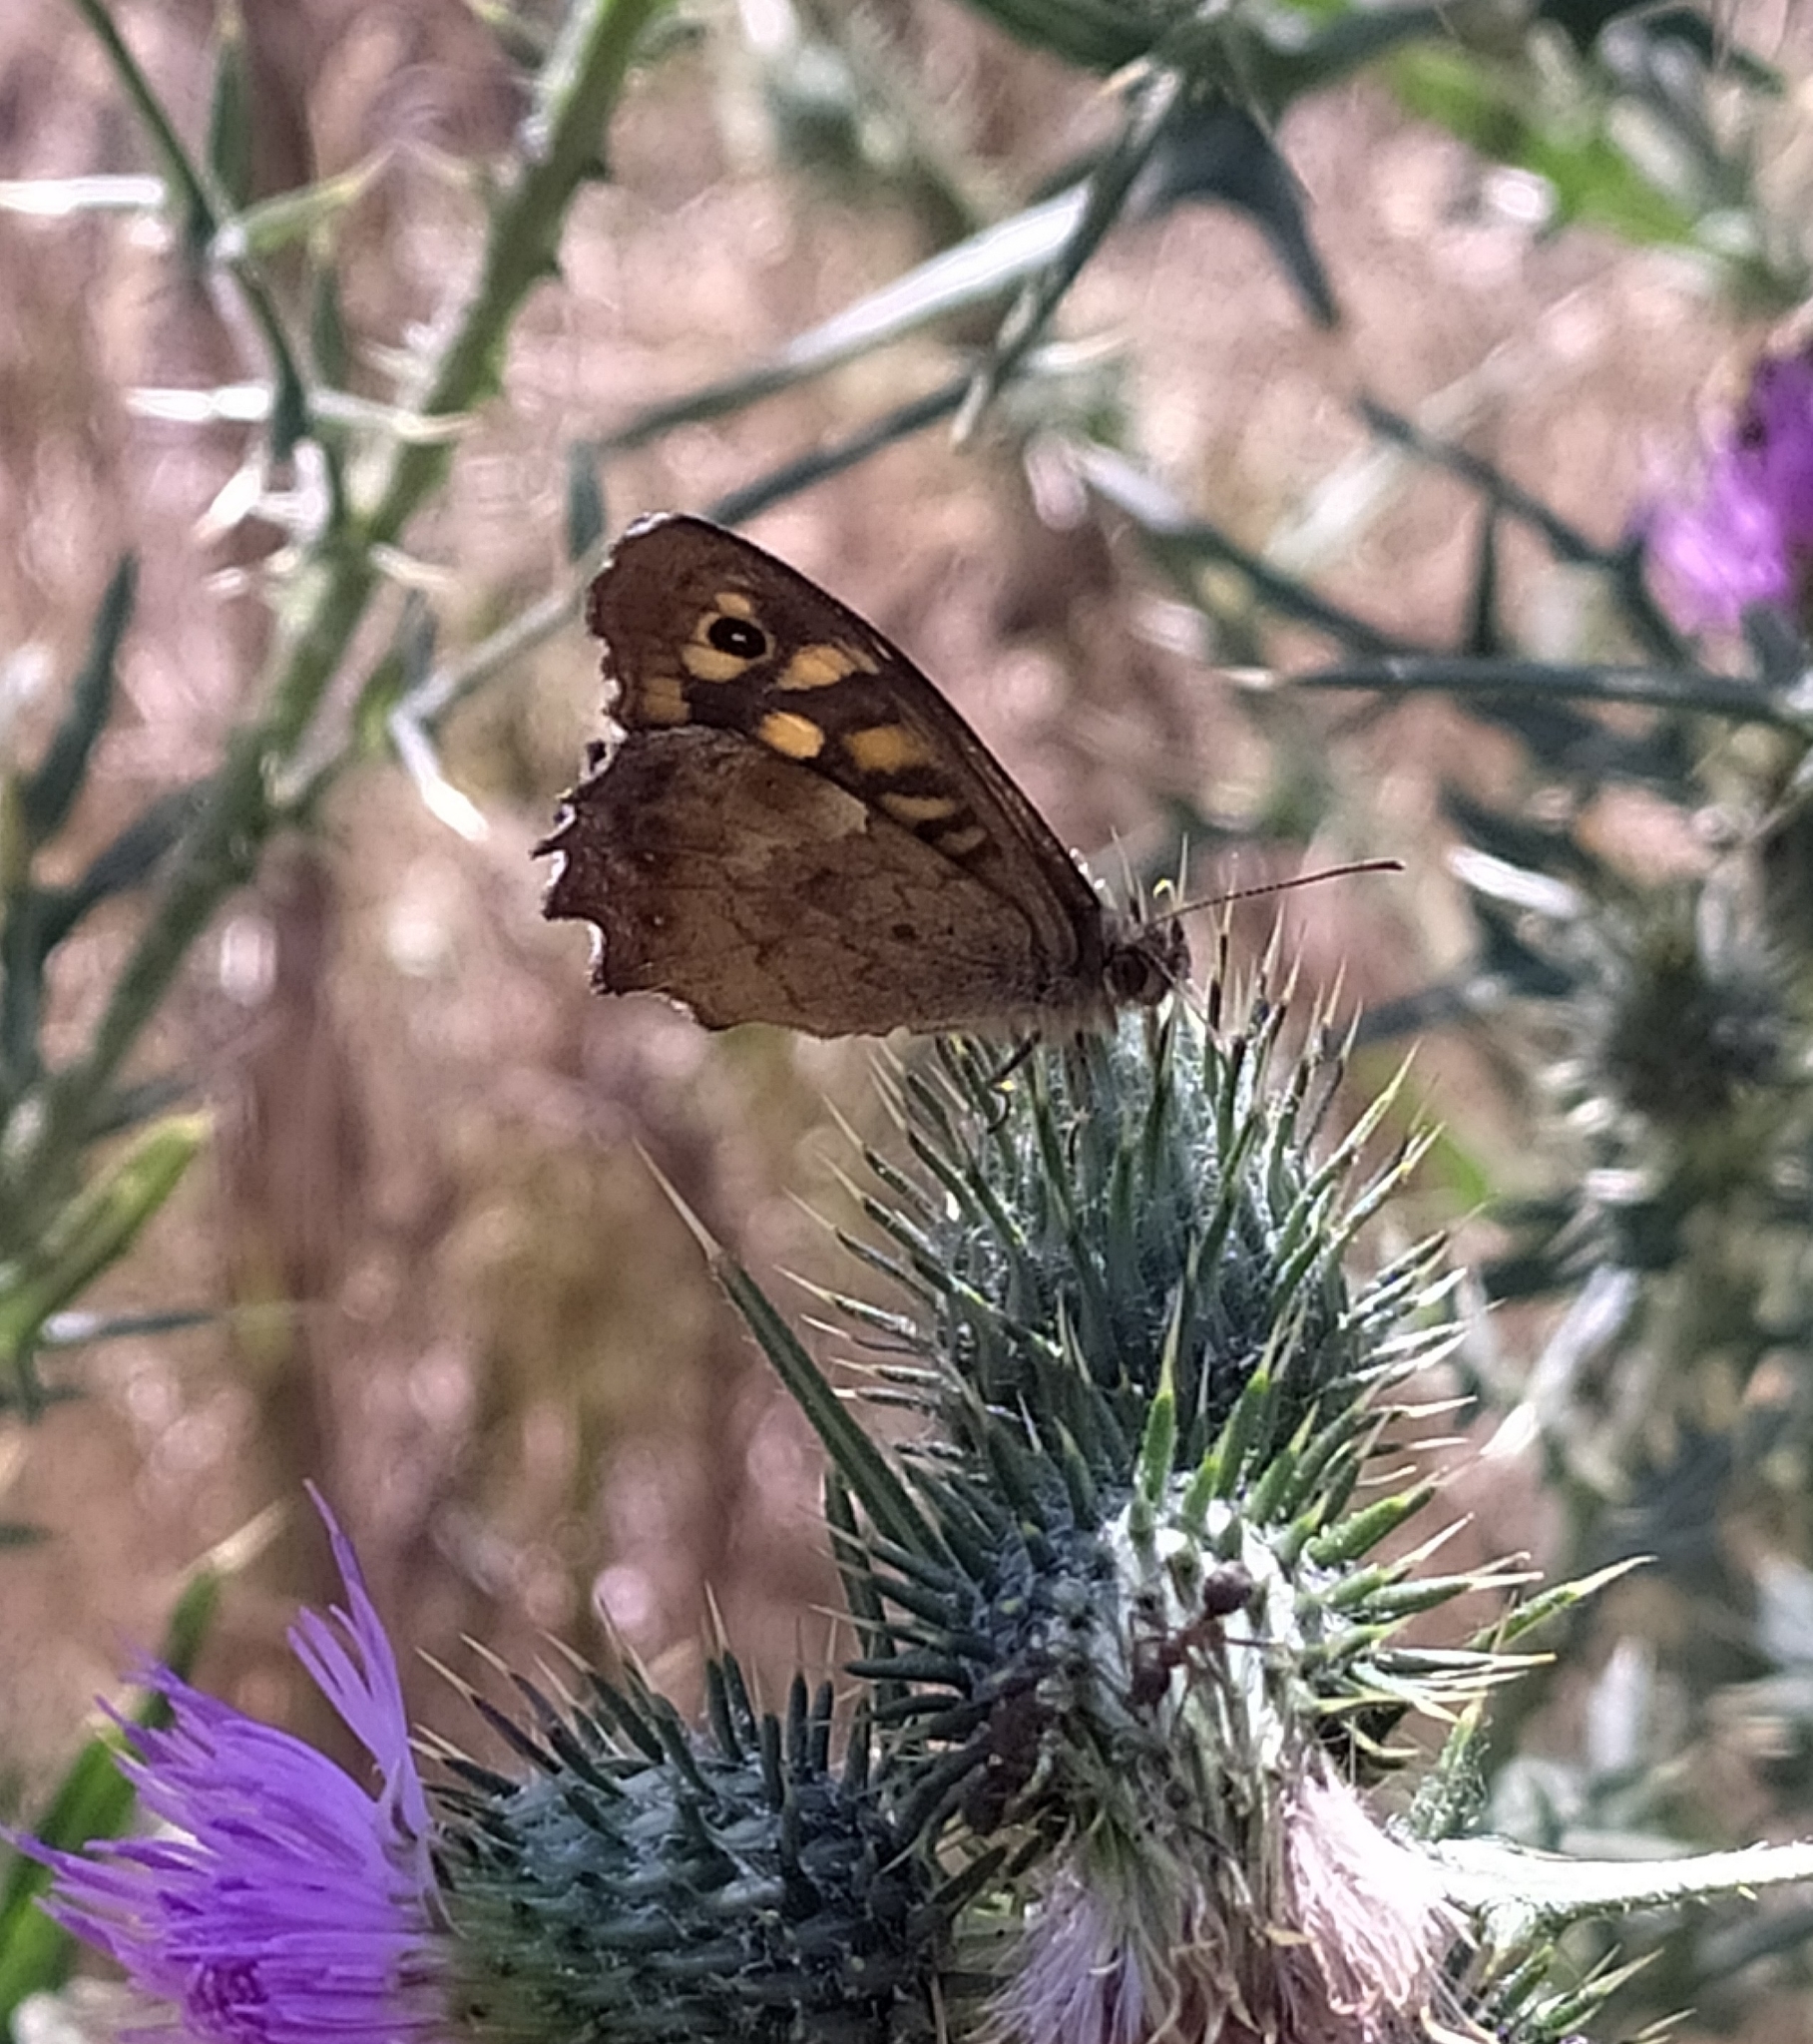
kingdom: Animalia
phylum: Arthropoda
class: Insecta
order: Lepidoptera
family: Nymphalidae
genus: Pararge
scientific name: Pararge aegeria
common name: Speckled wood
